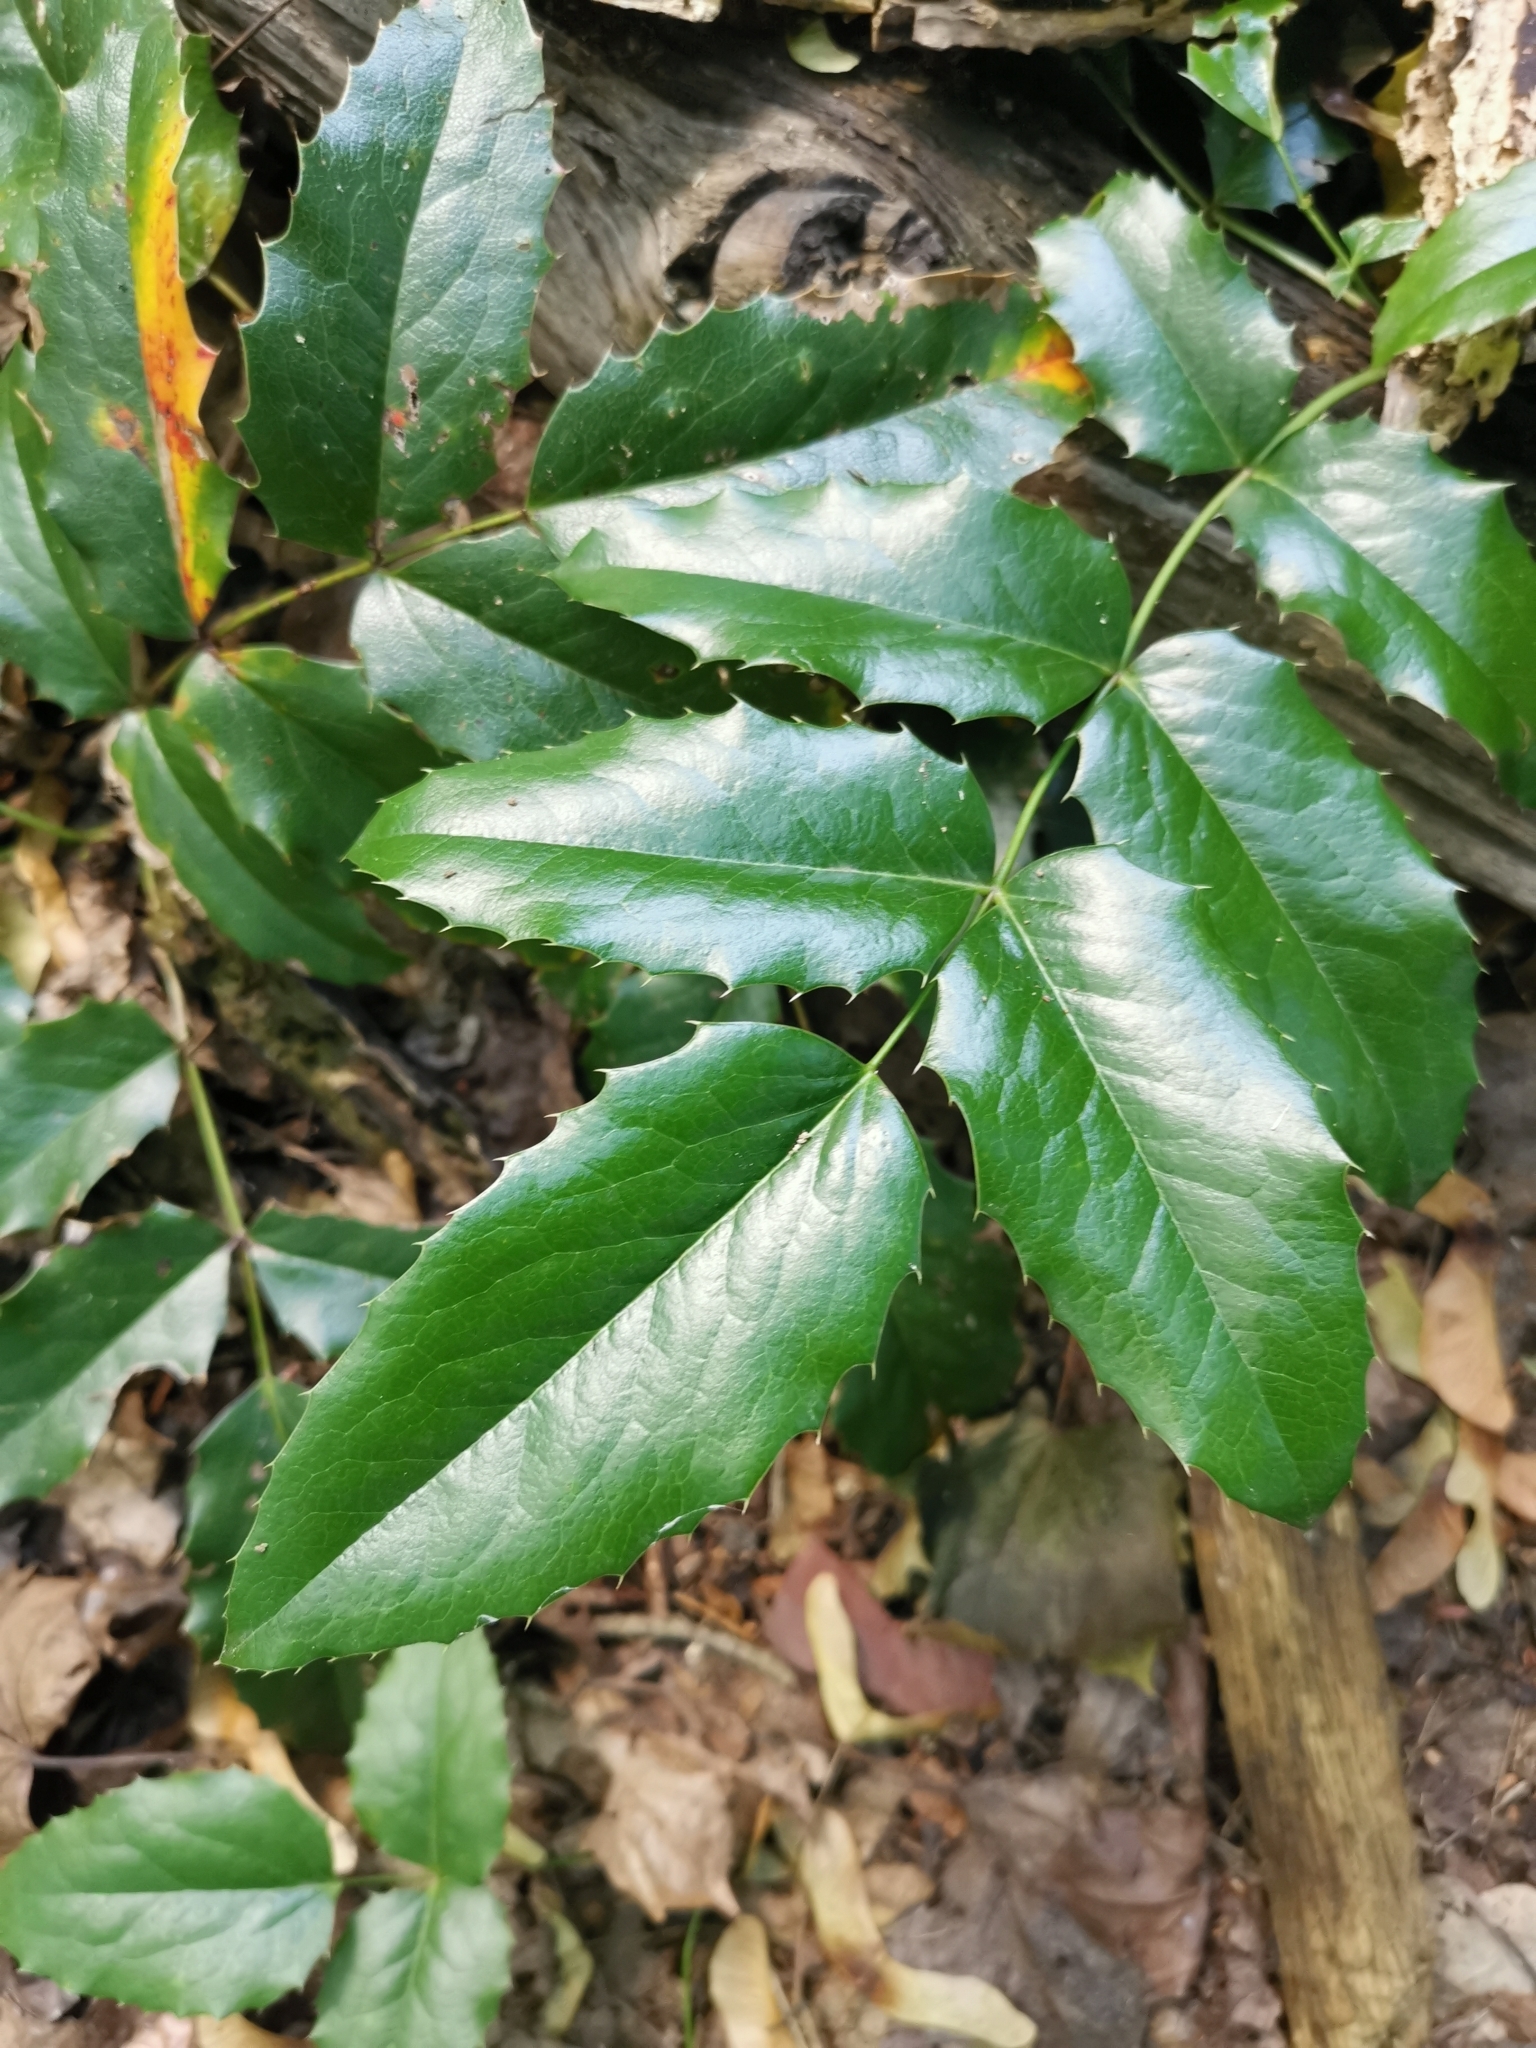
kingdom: Plantae
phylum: Tracheophyta
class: Magnoliopsida
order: Ranunculales
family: Berberidaceae
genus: Mahonia
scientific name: Mahonia aquifolium
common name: Oregon-grape
